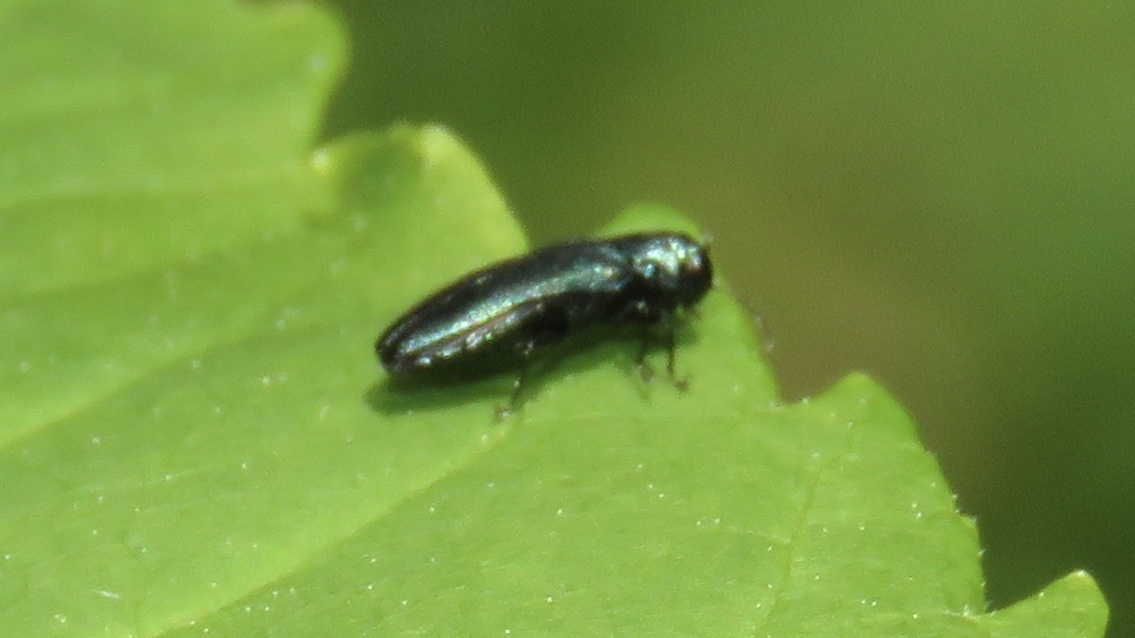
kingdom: Animalia
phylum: Arthropoda
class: Insecta
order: Coleoptera
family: Buprestidae
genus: Agrilus
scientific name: Agrilus cyanescens
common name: Bluish borer beetle
